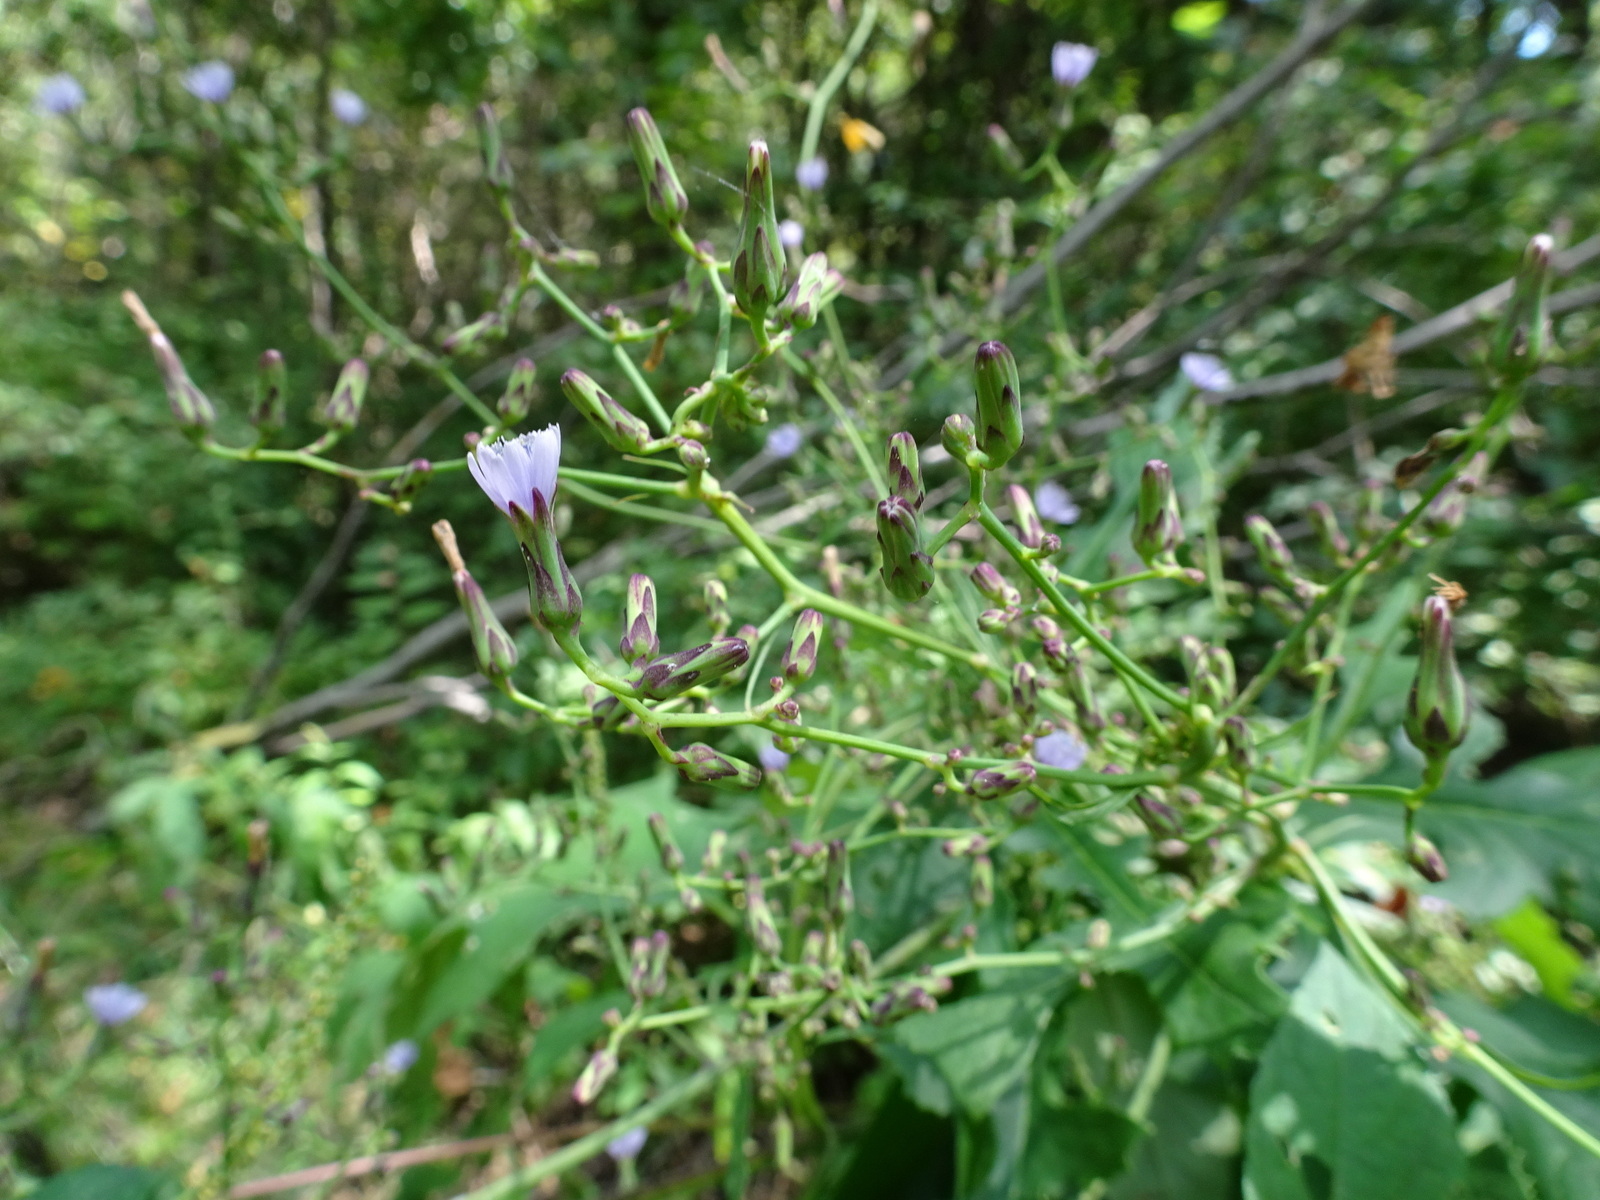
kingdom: Plantae
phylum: Tracheophyta
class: Magnoliopsida
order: Asterales
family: Asteraceae
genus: Lactuca
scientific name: Lactuca floridana
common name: Woodland lettuce
